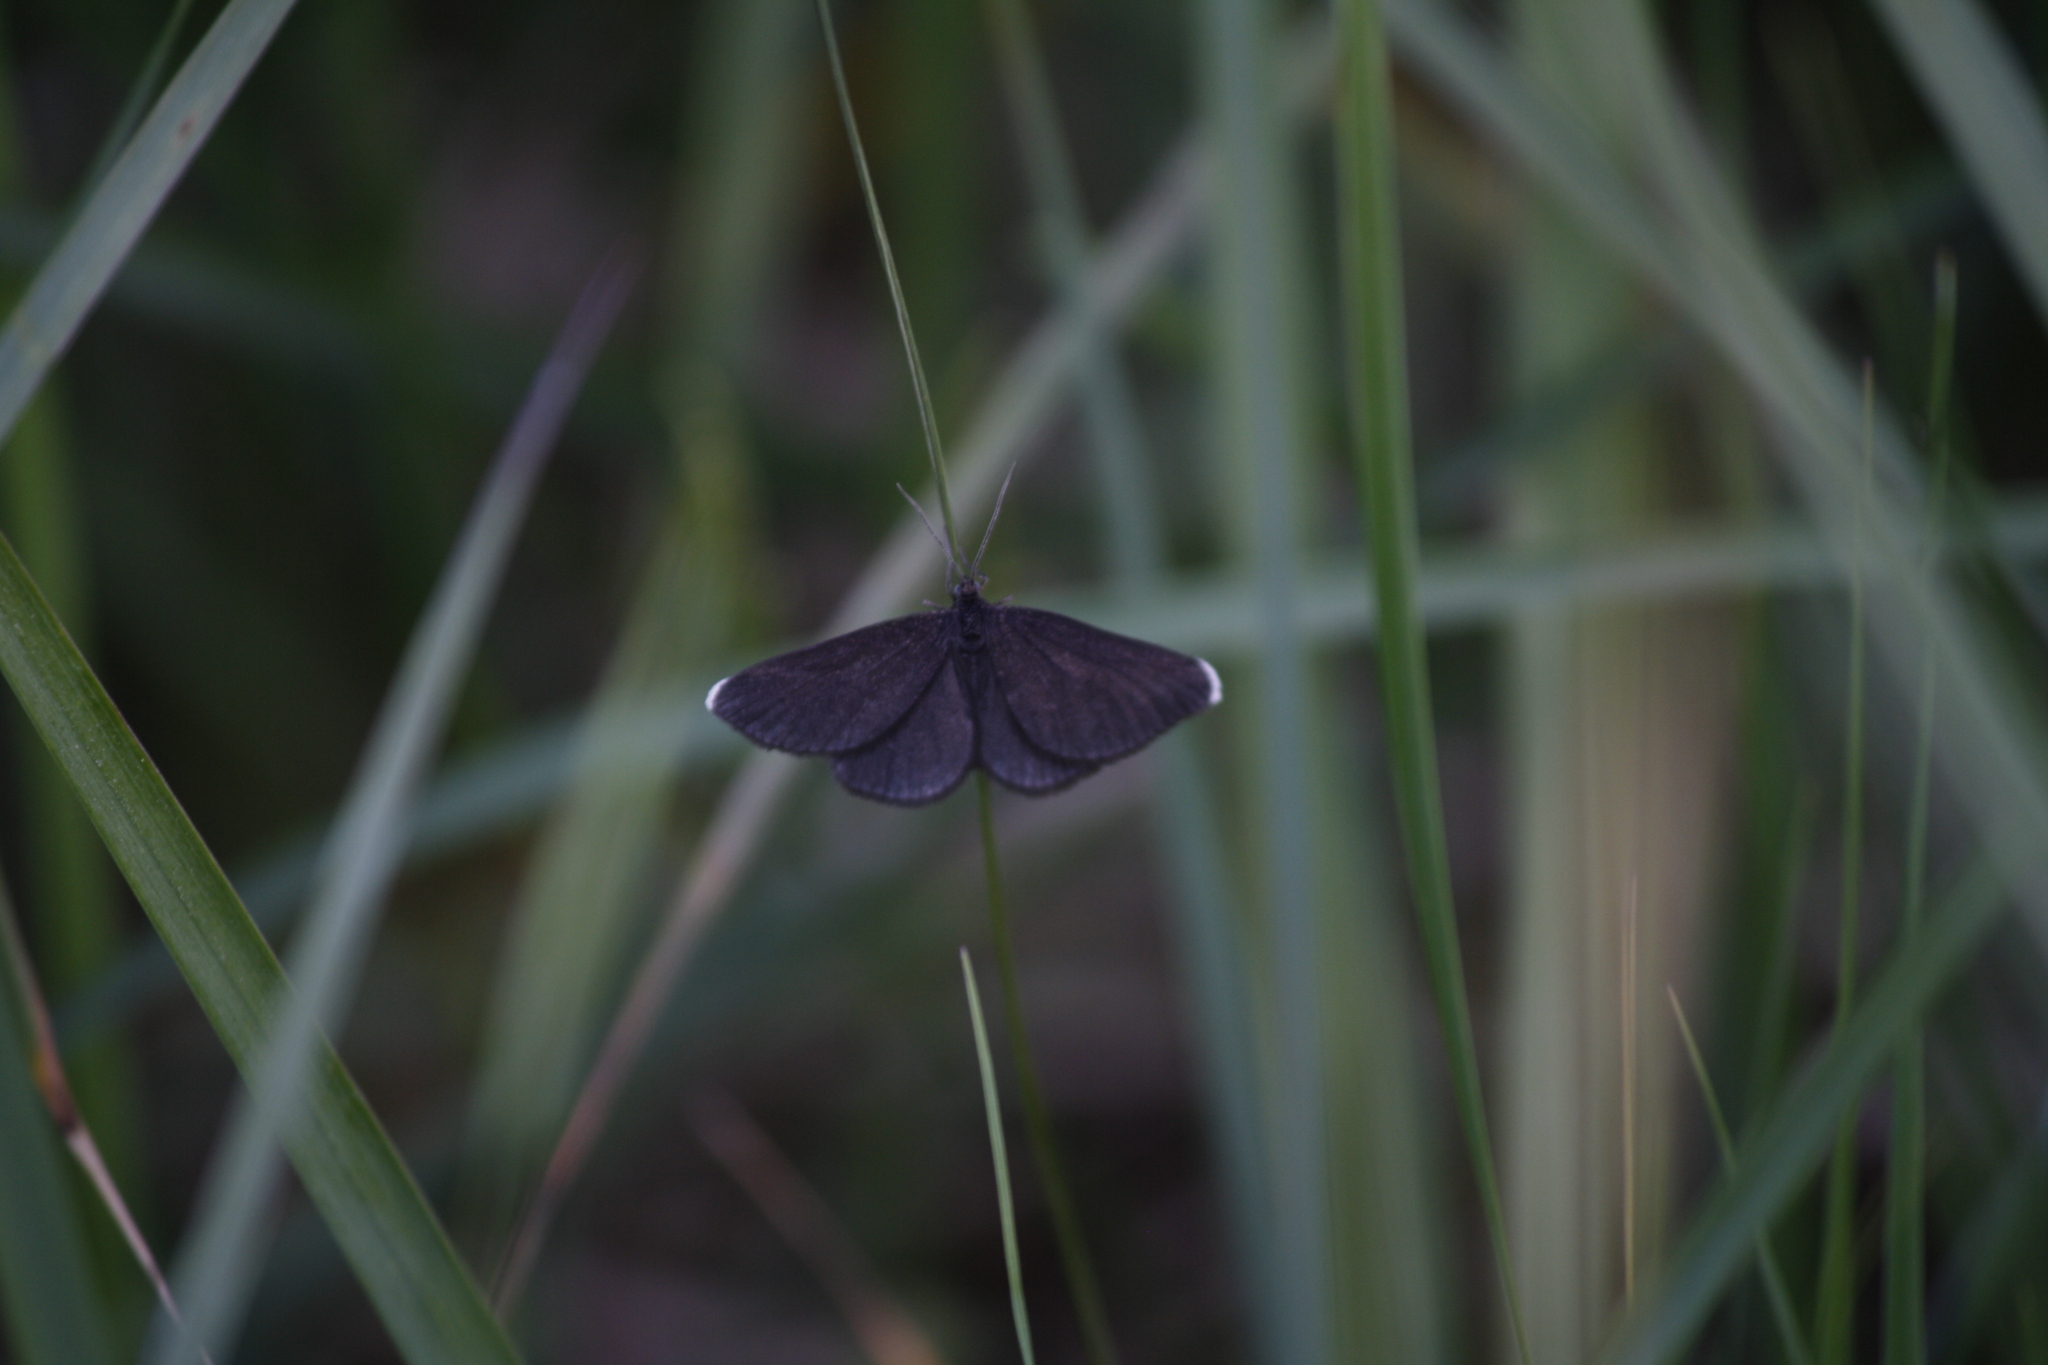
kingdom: Animalia
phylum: Arthropoda
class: Insecta
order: Lepidoptera
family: Geometridae
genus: Odezia
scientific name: Odezia atrata
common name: Chimney sweeper
